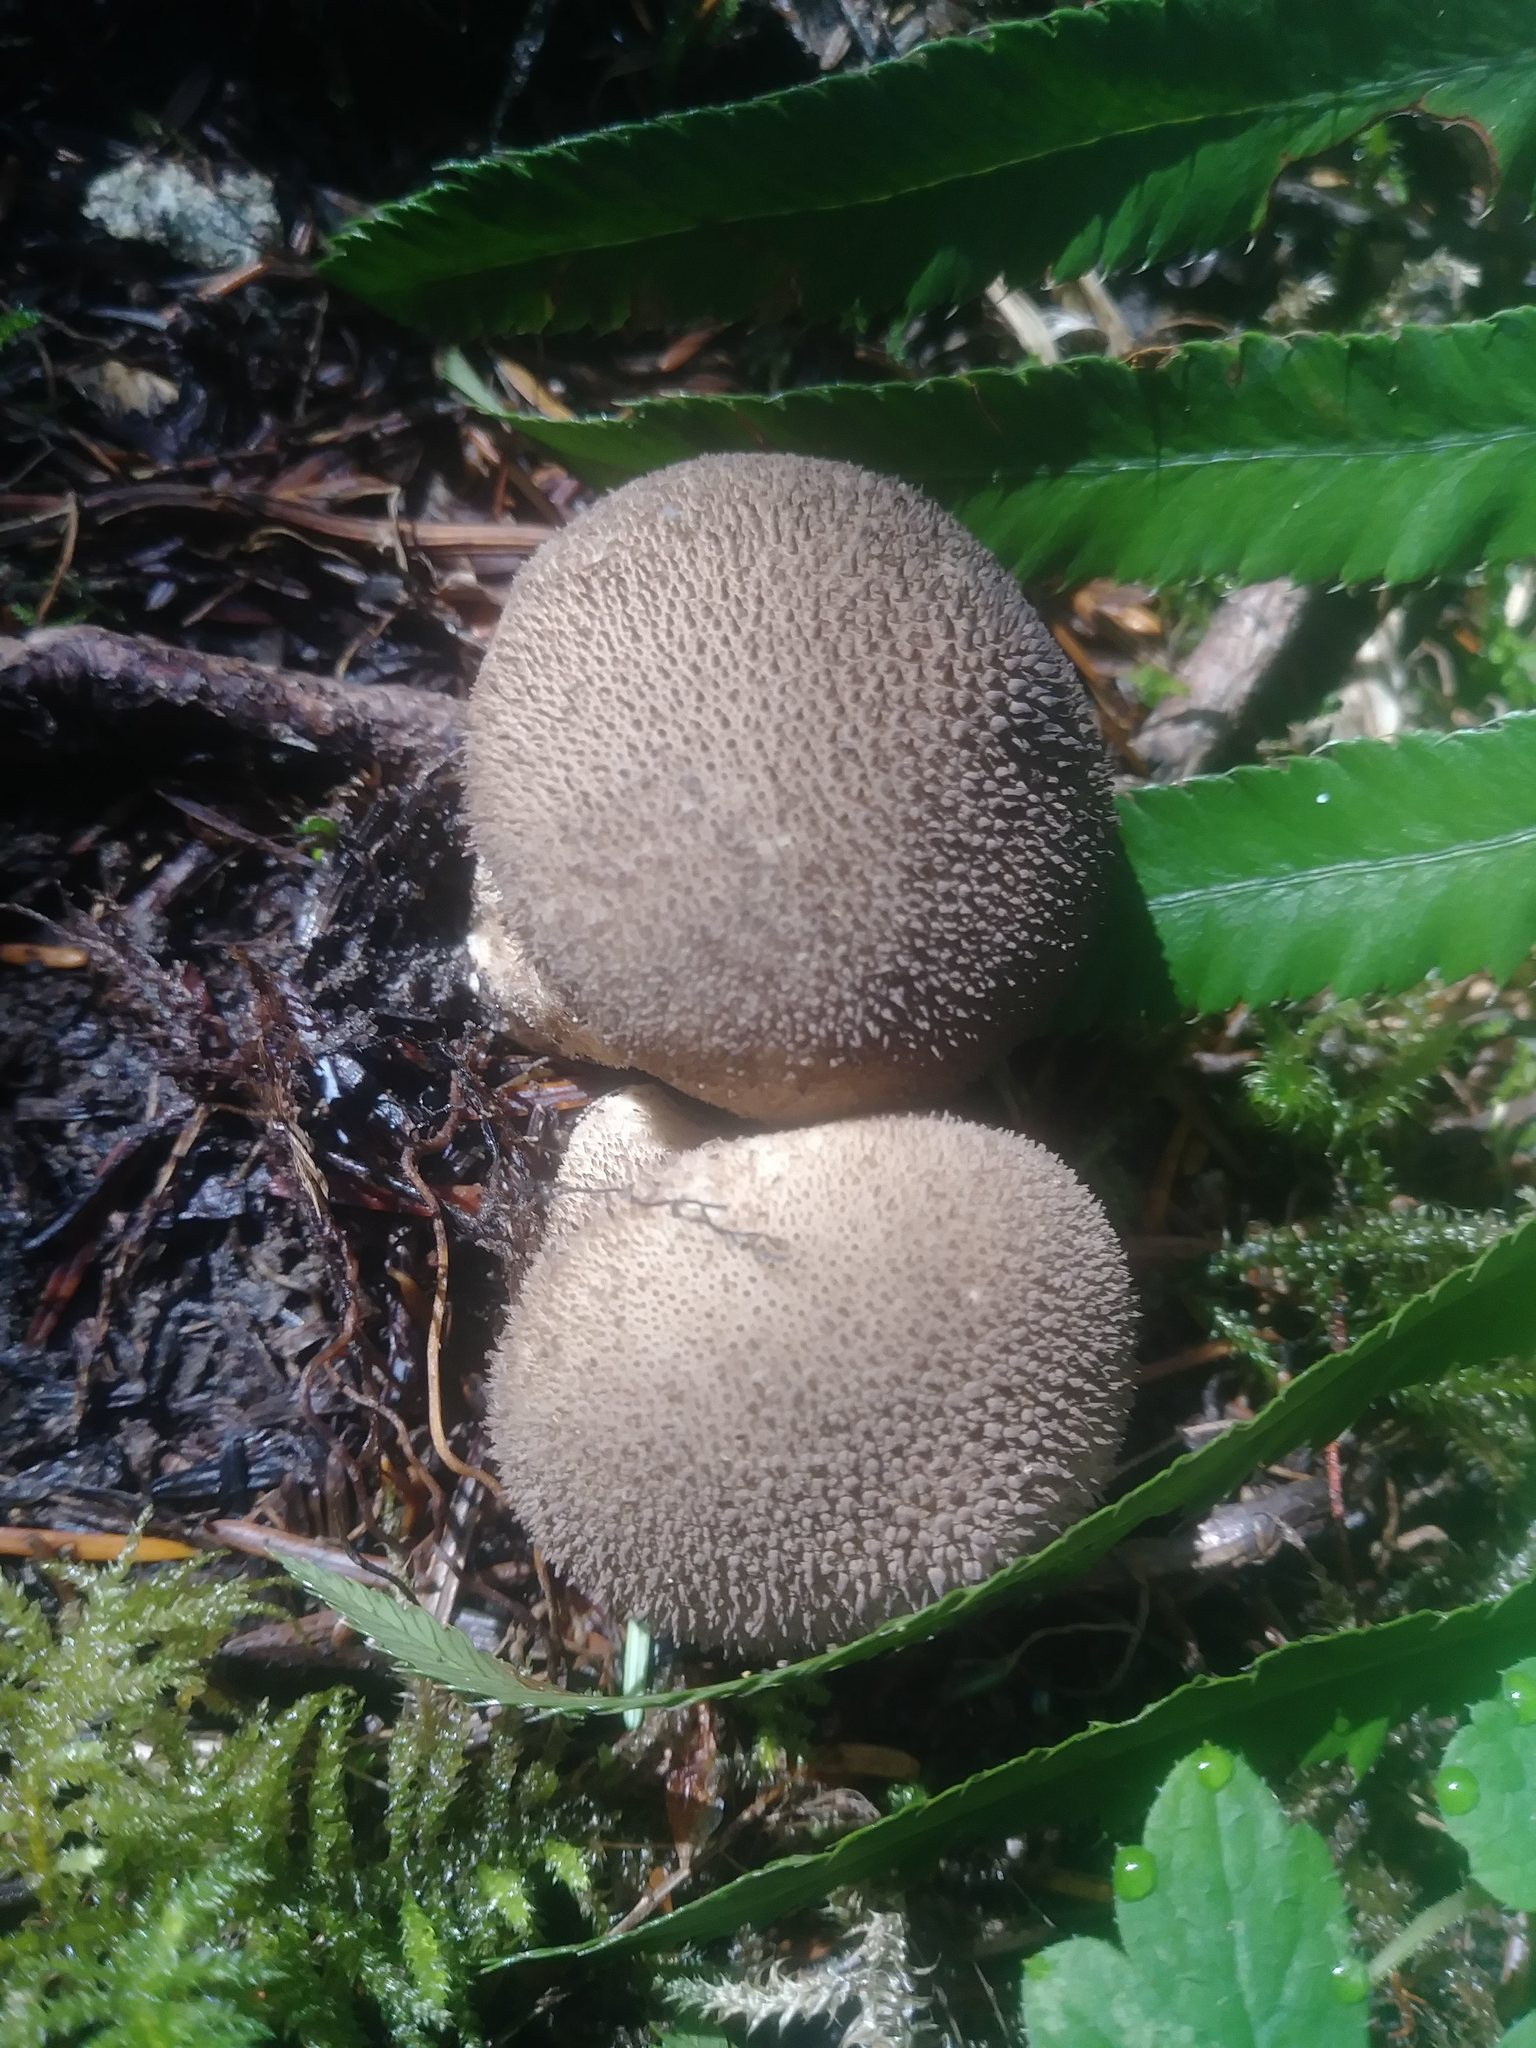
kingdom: Fungi
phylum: Basidiomycota
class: Agaricomycetes
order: Agaricales
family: Lycoperdaceae
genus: Lycoperdon
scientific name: Lycoperdon perlatum
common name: Common puffball
